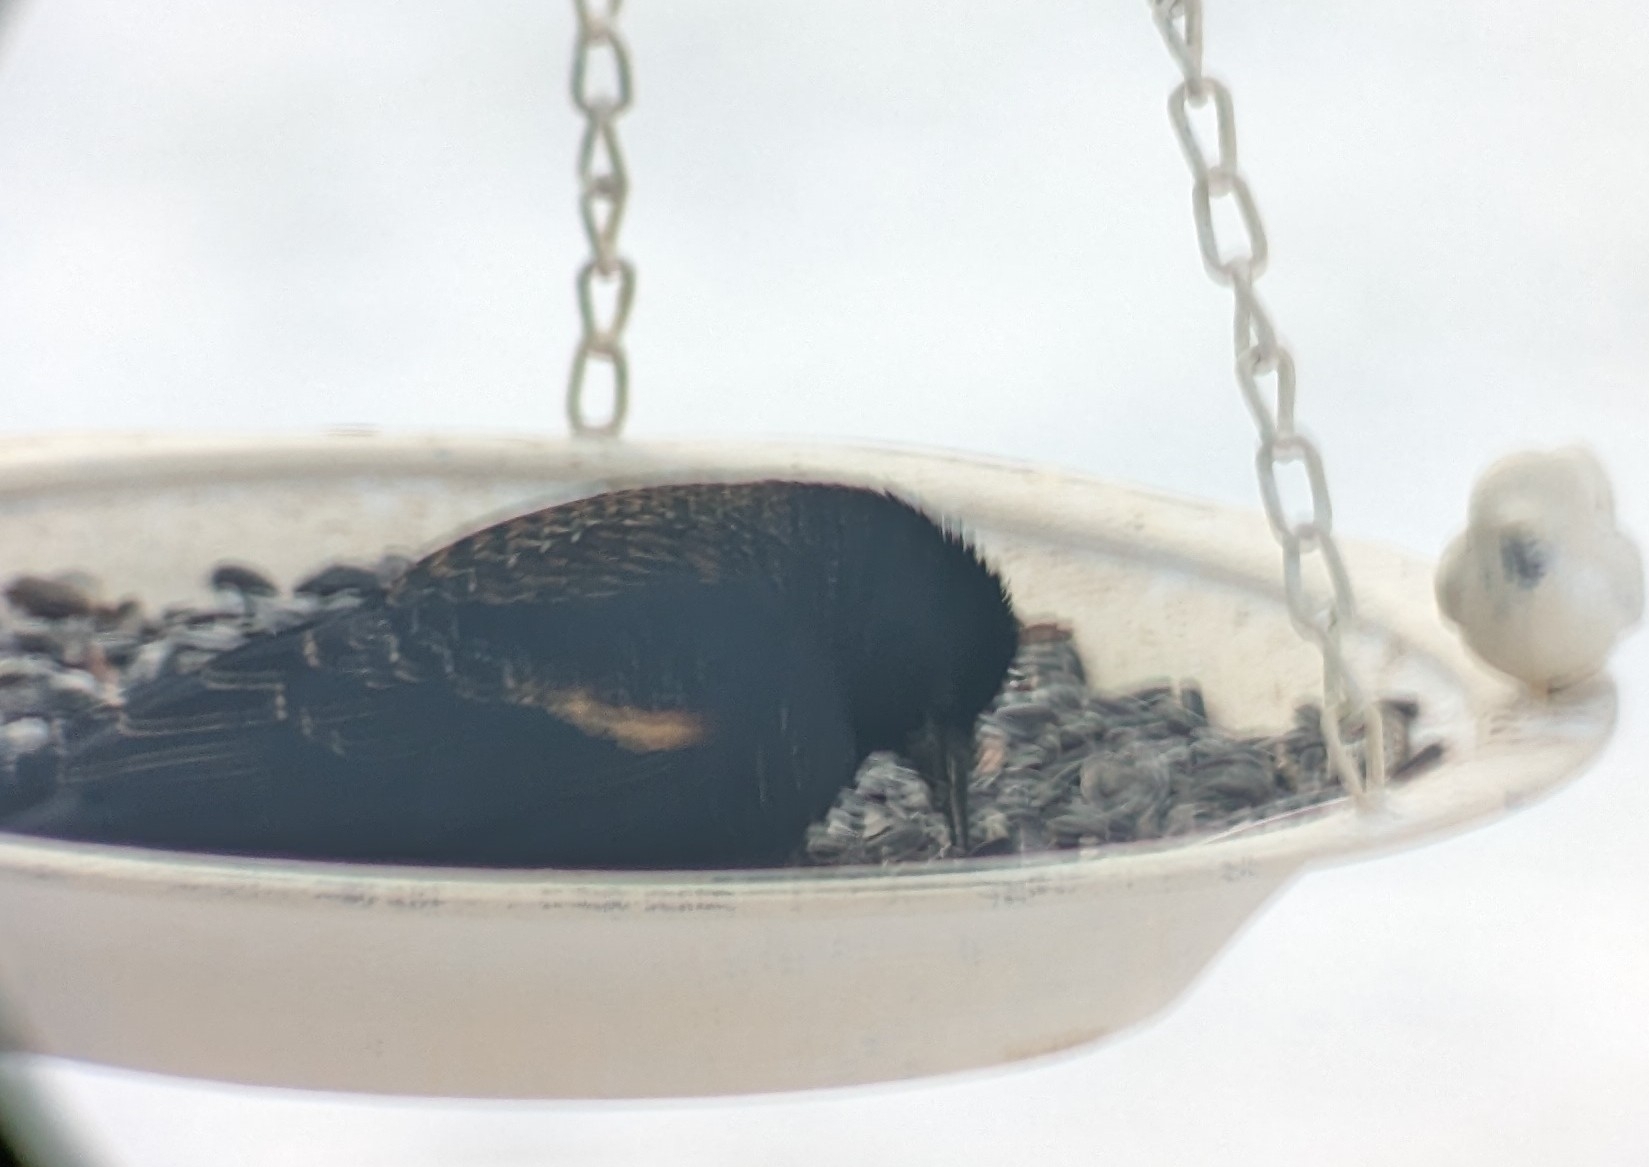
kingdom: Animalia
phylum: Chordata
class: Aves
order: Passeriformes
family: Icteridae
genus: Agelaius
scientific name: Agelaius phoeniceus
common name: Red-winged blackbird
